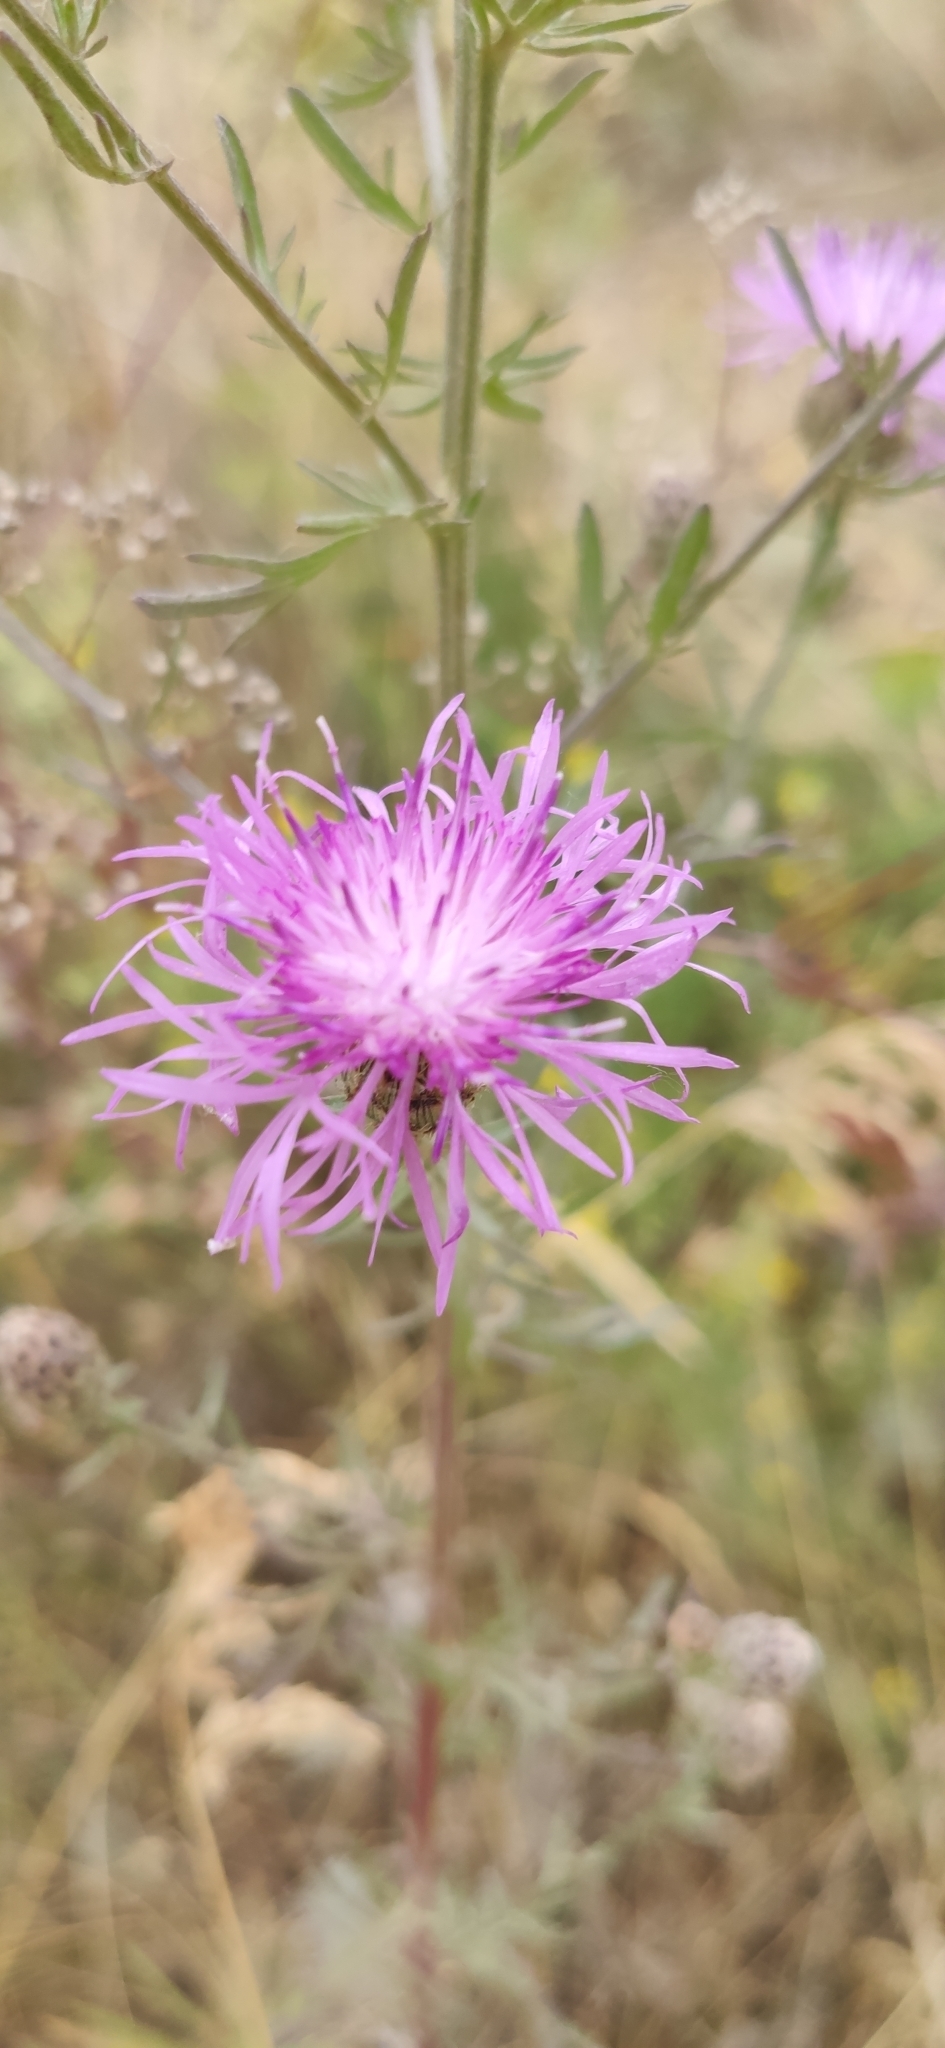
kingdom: Plantae
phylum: Tracheophyta
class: Magnoliopsida
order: Asterales
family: Asteraceae
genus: Centaurea
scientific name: Centaurea stoebe
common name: Spotted knapweed
